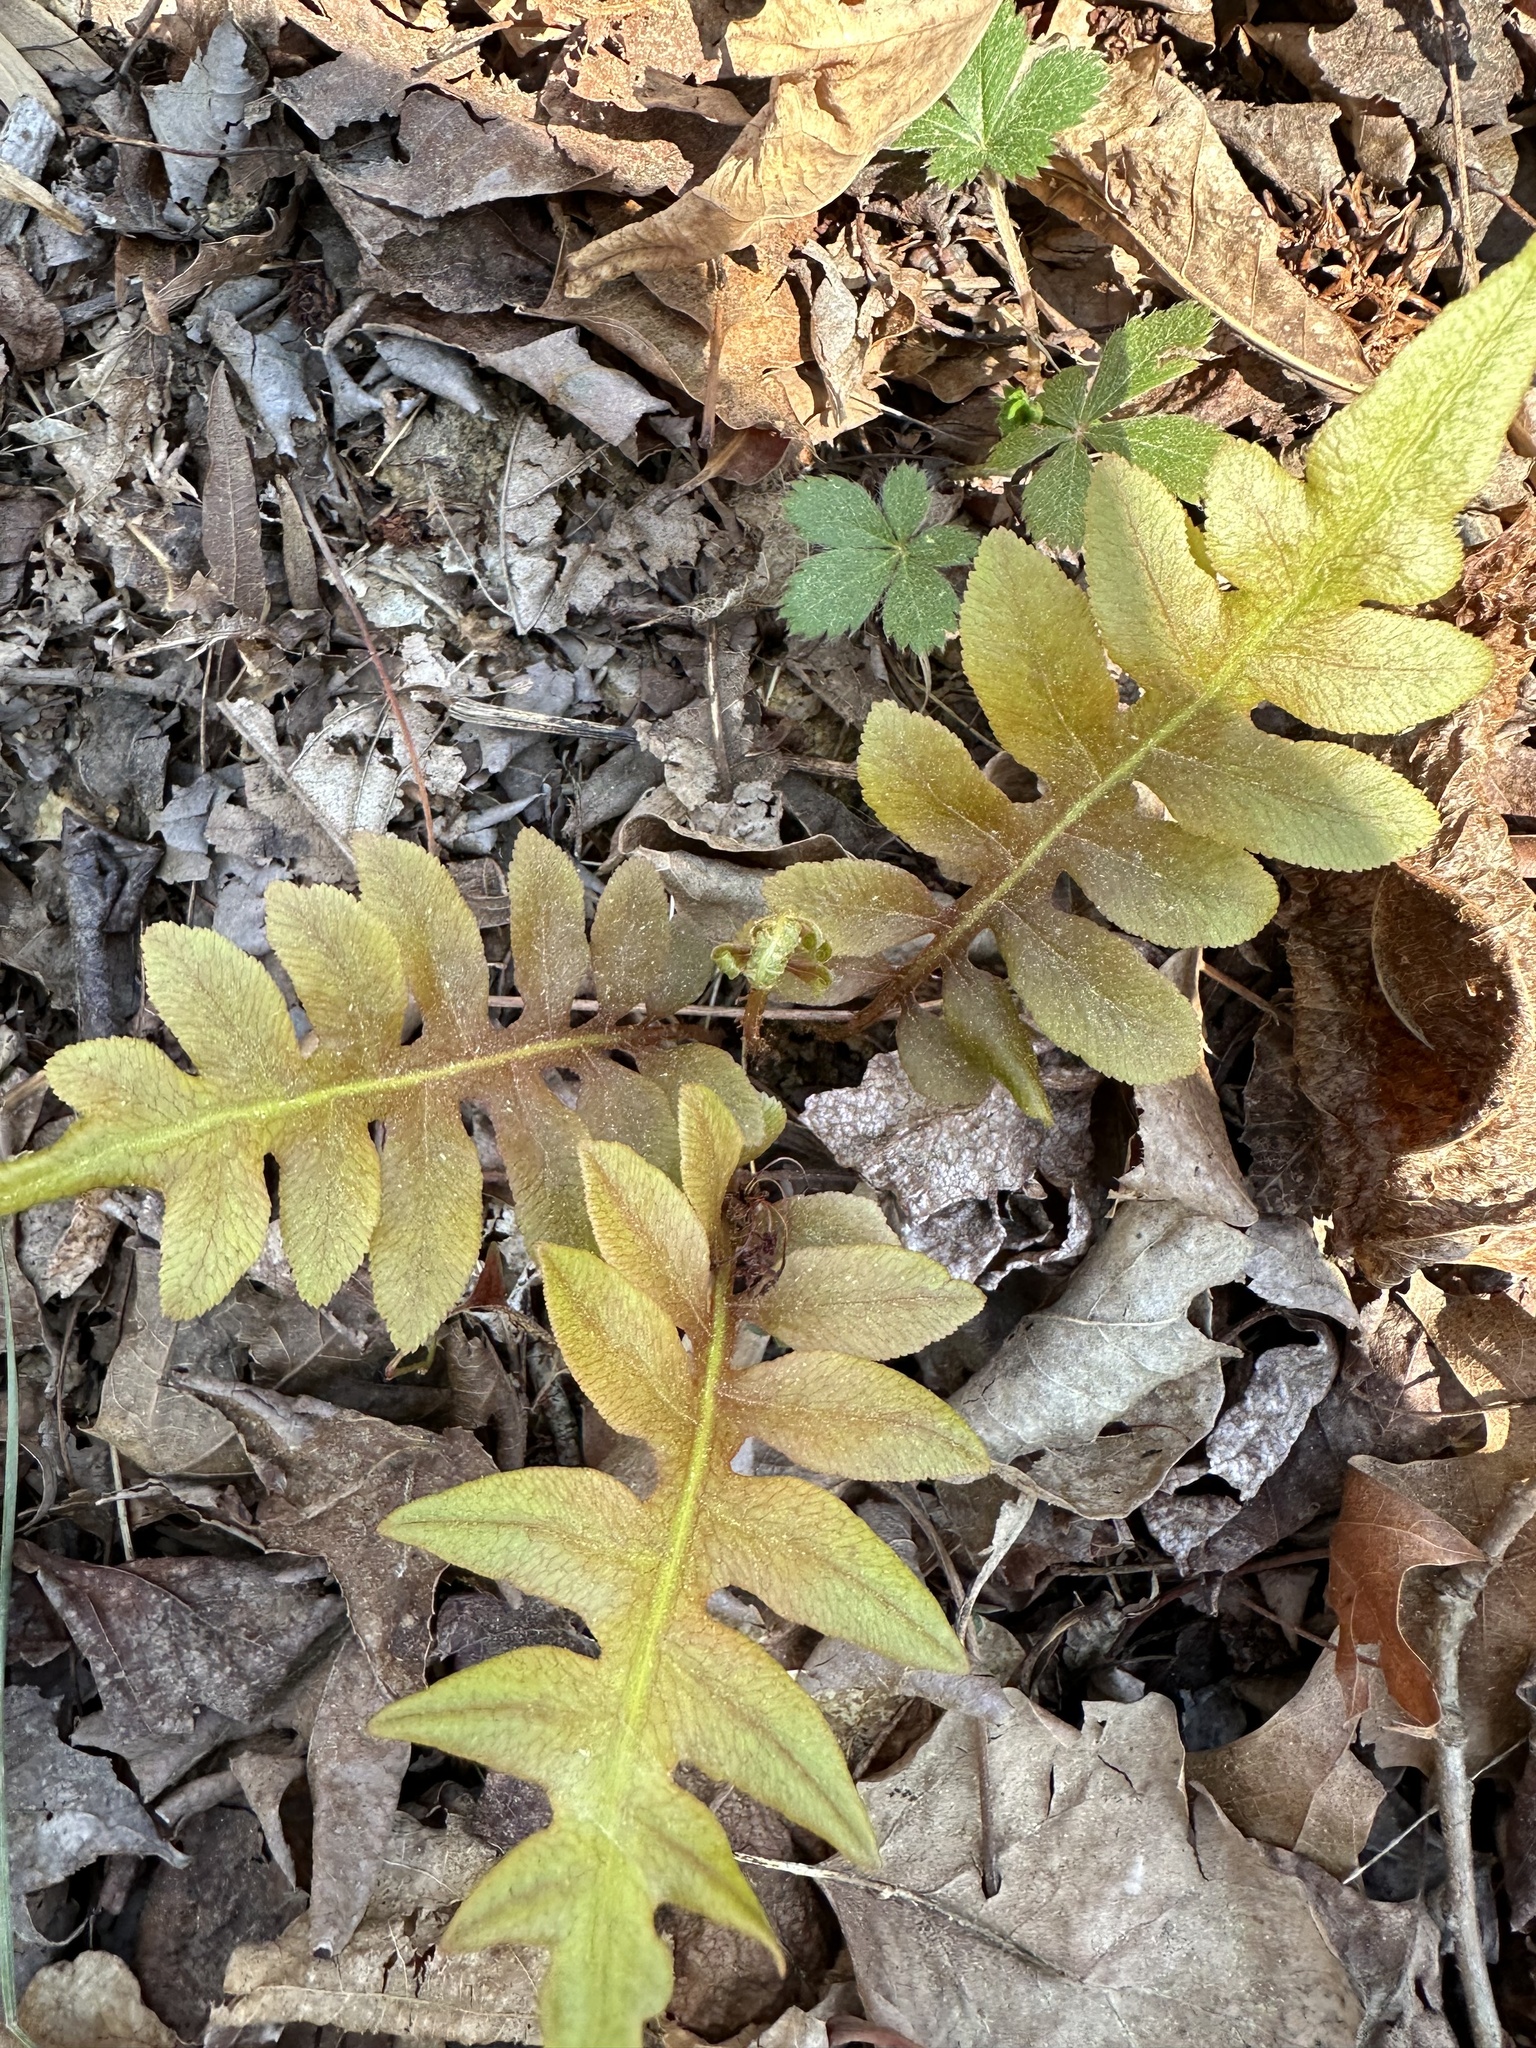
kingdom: Plantae
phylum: Tracheophyta
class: Polypodiopsida
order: Polypodiales
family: Blechnaceae
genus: Lorinseria
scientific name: Lorinseria areolata
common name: Dwarf chain fern
